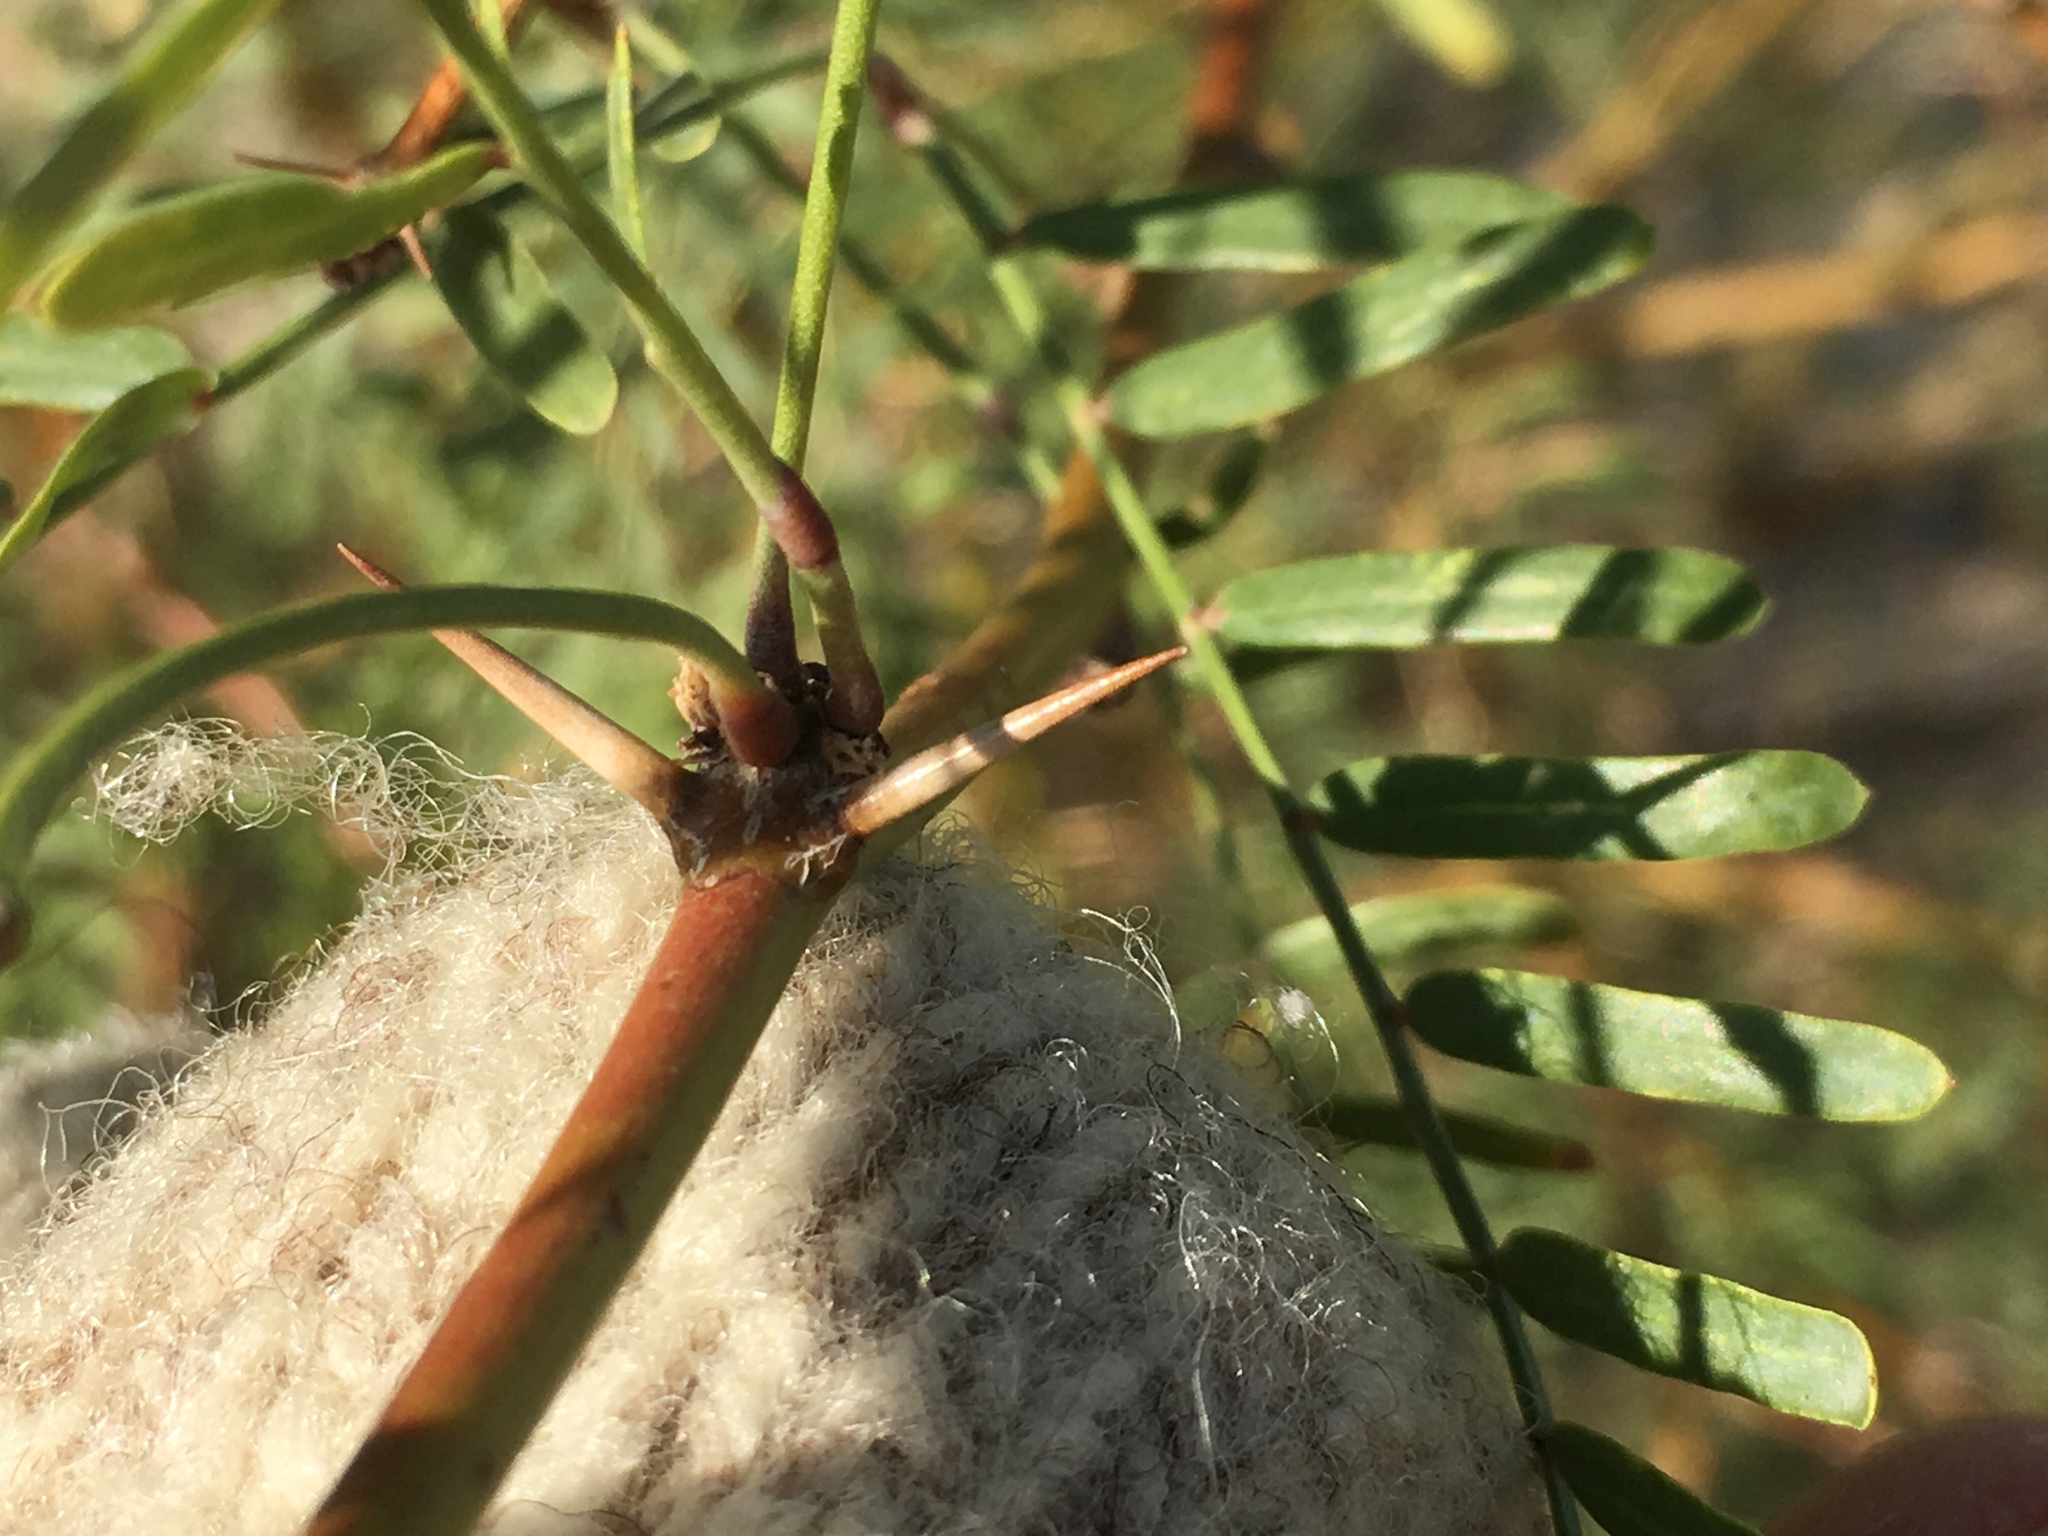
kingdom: Plantae
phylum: Tracheophyta
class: Magnoliopsida
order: Fabales
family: Fabaceae
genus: Prosopis
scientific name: Prosopis pubescens
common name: Screw-bean
